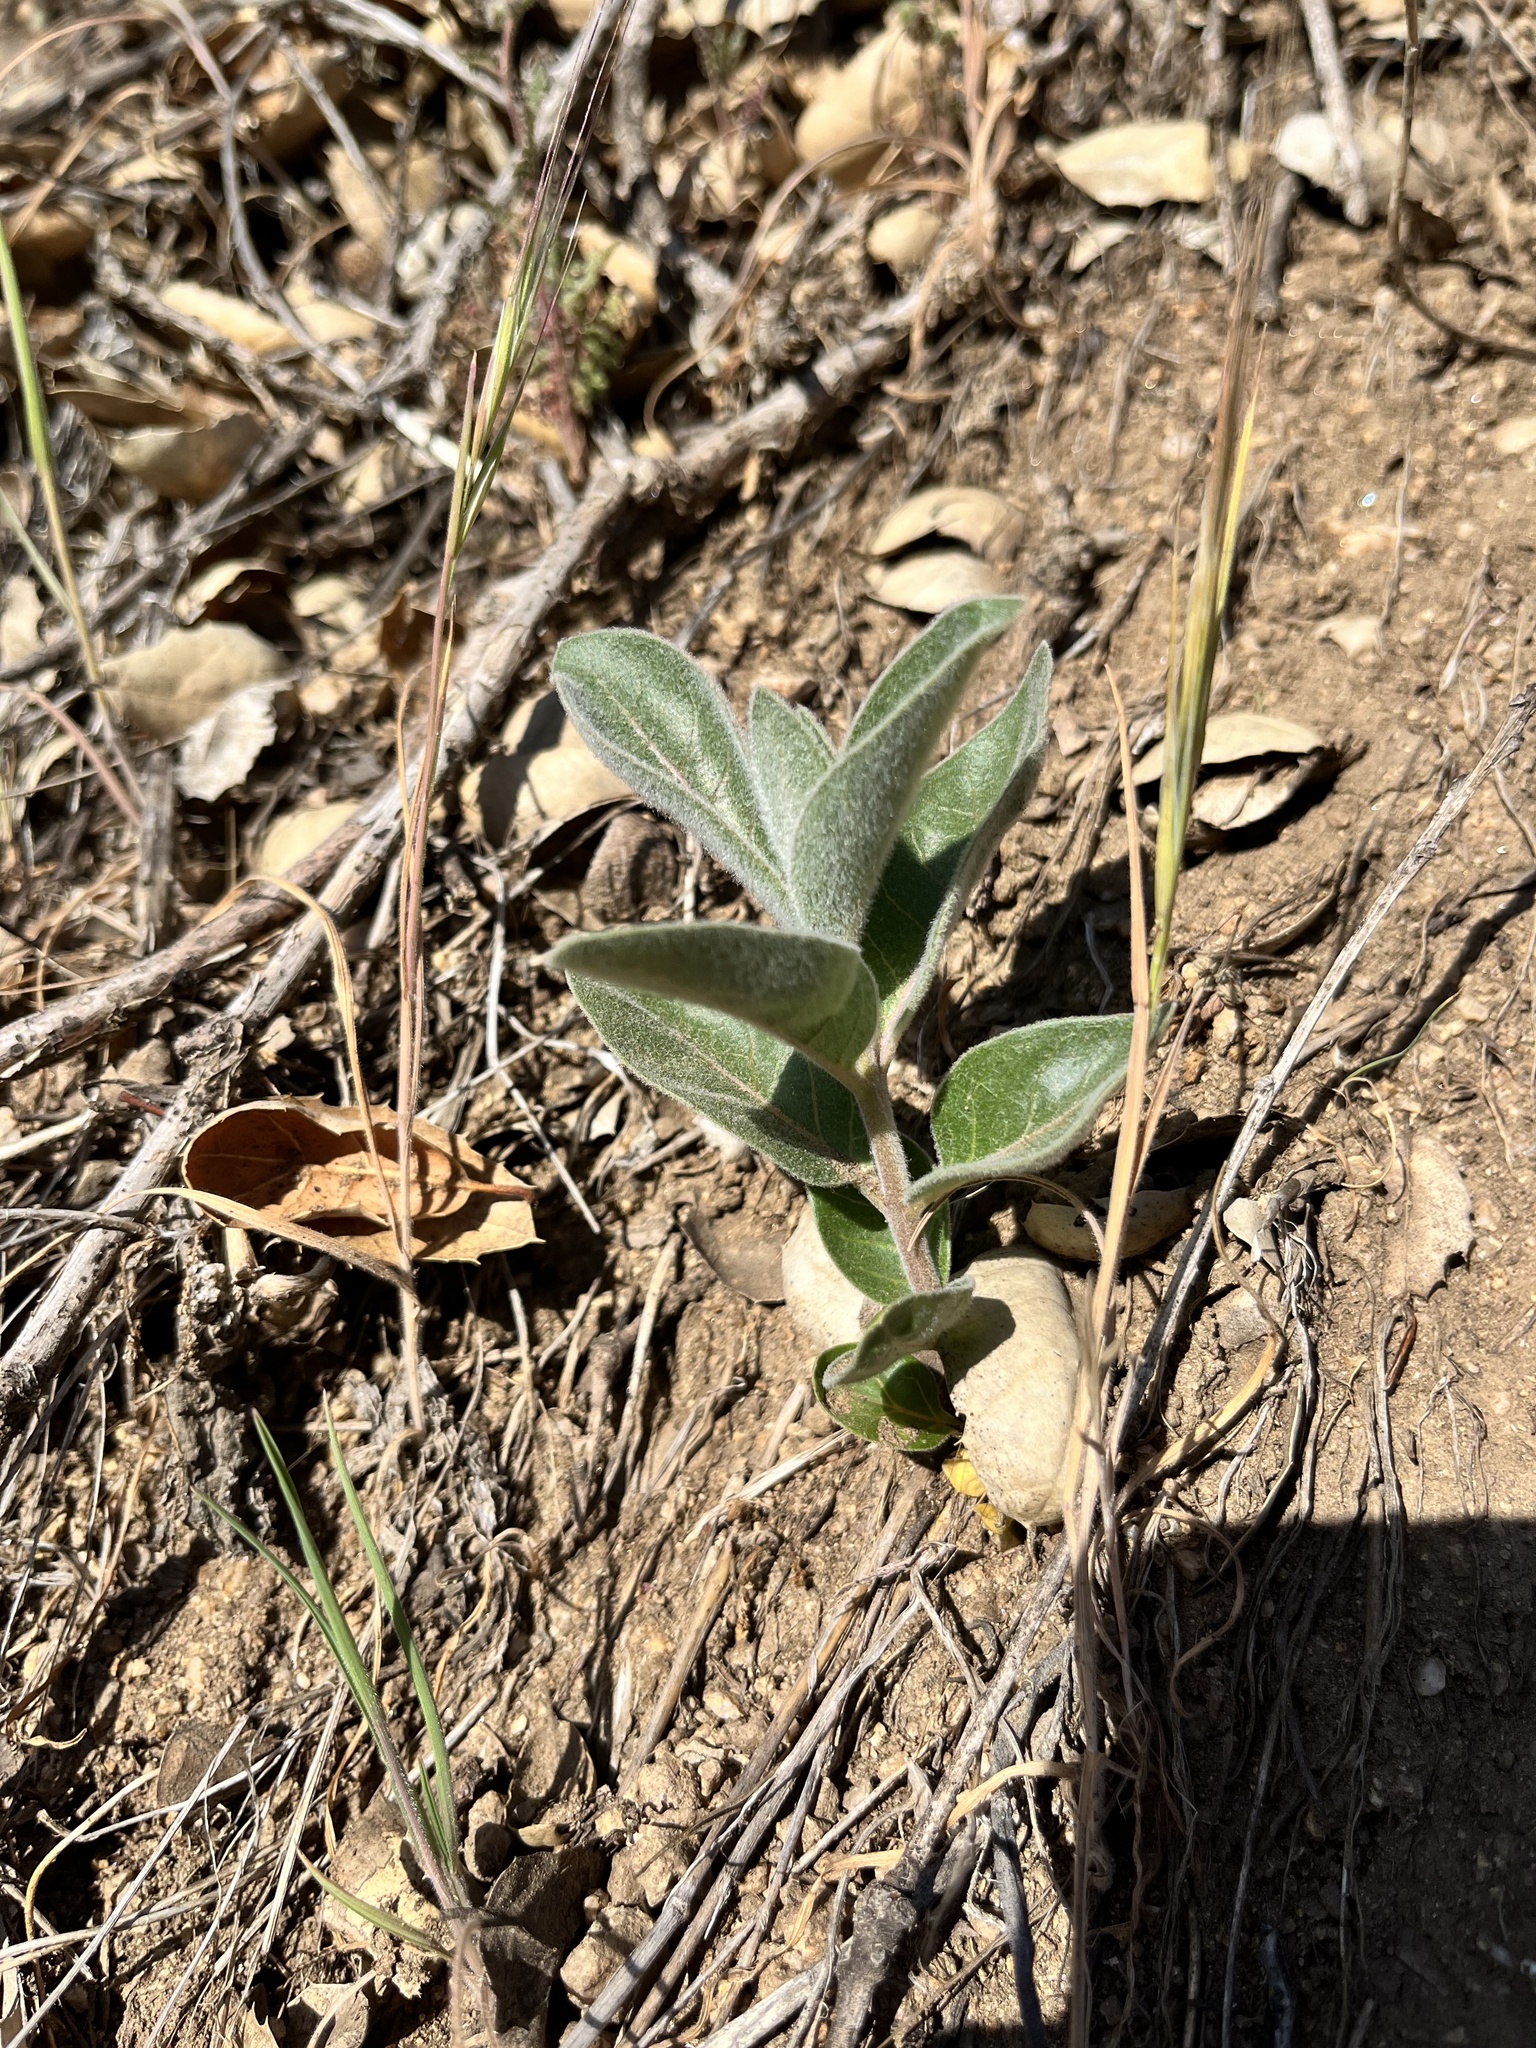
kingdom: Plantae
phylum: Tracheophyta
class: Magnoliopsida
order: Gentianales
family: Apocynaceae
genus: Asclepias
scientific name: Asclepias eriocarpa
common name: Indian milkweed
